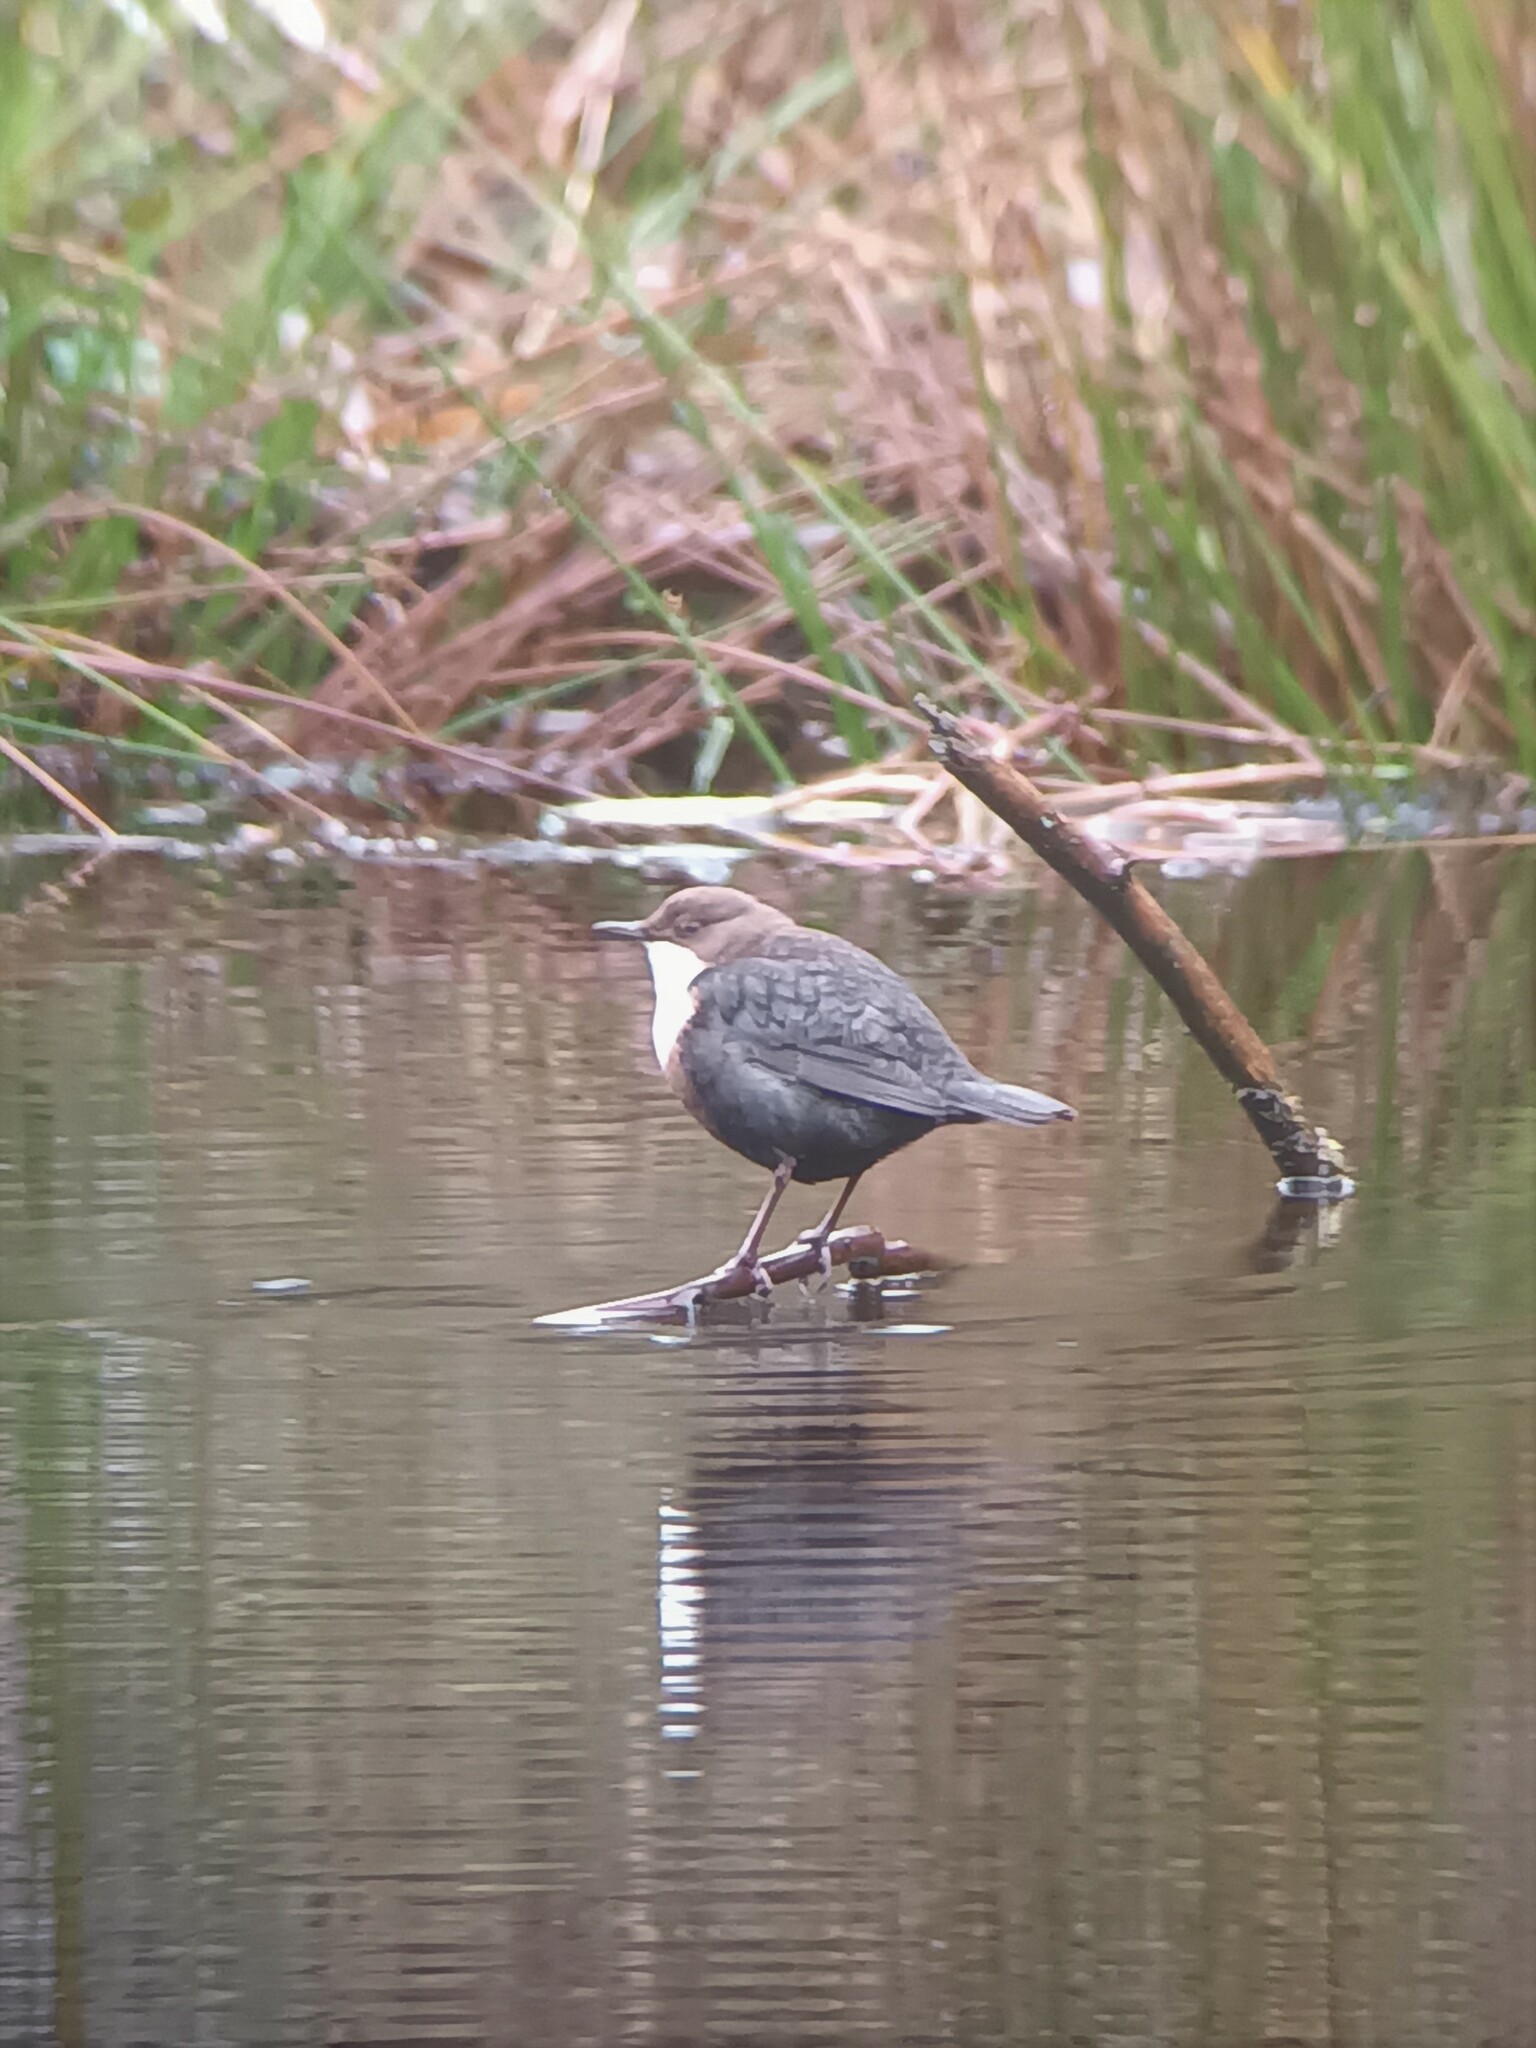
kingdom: Animalia
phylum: Chordata
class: Aves
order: Passeriformes
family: Cinclidae
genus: Cinclus
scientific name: Cinclus cinclus
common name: White-throated dipper
